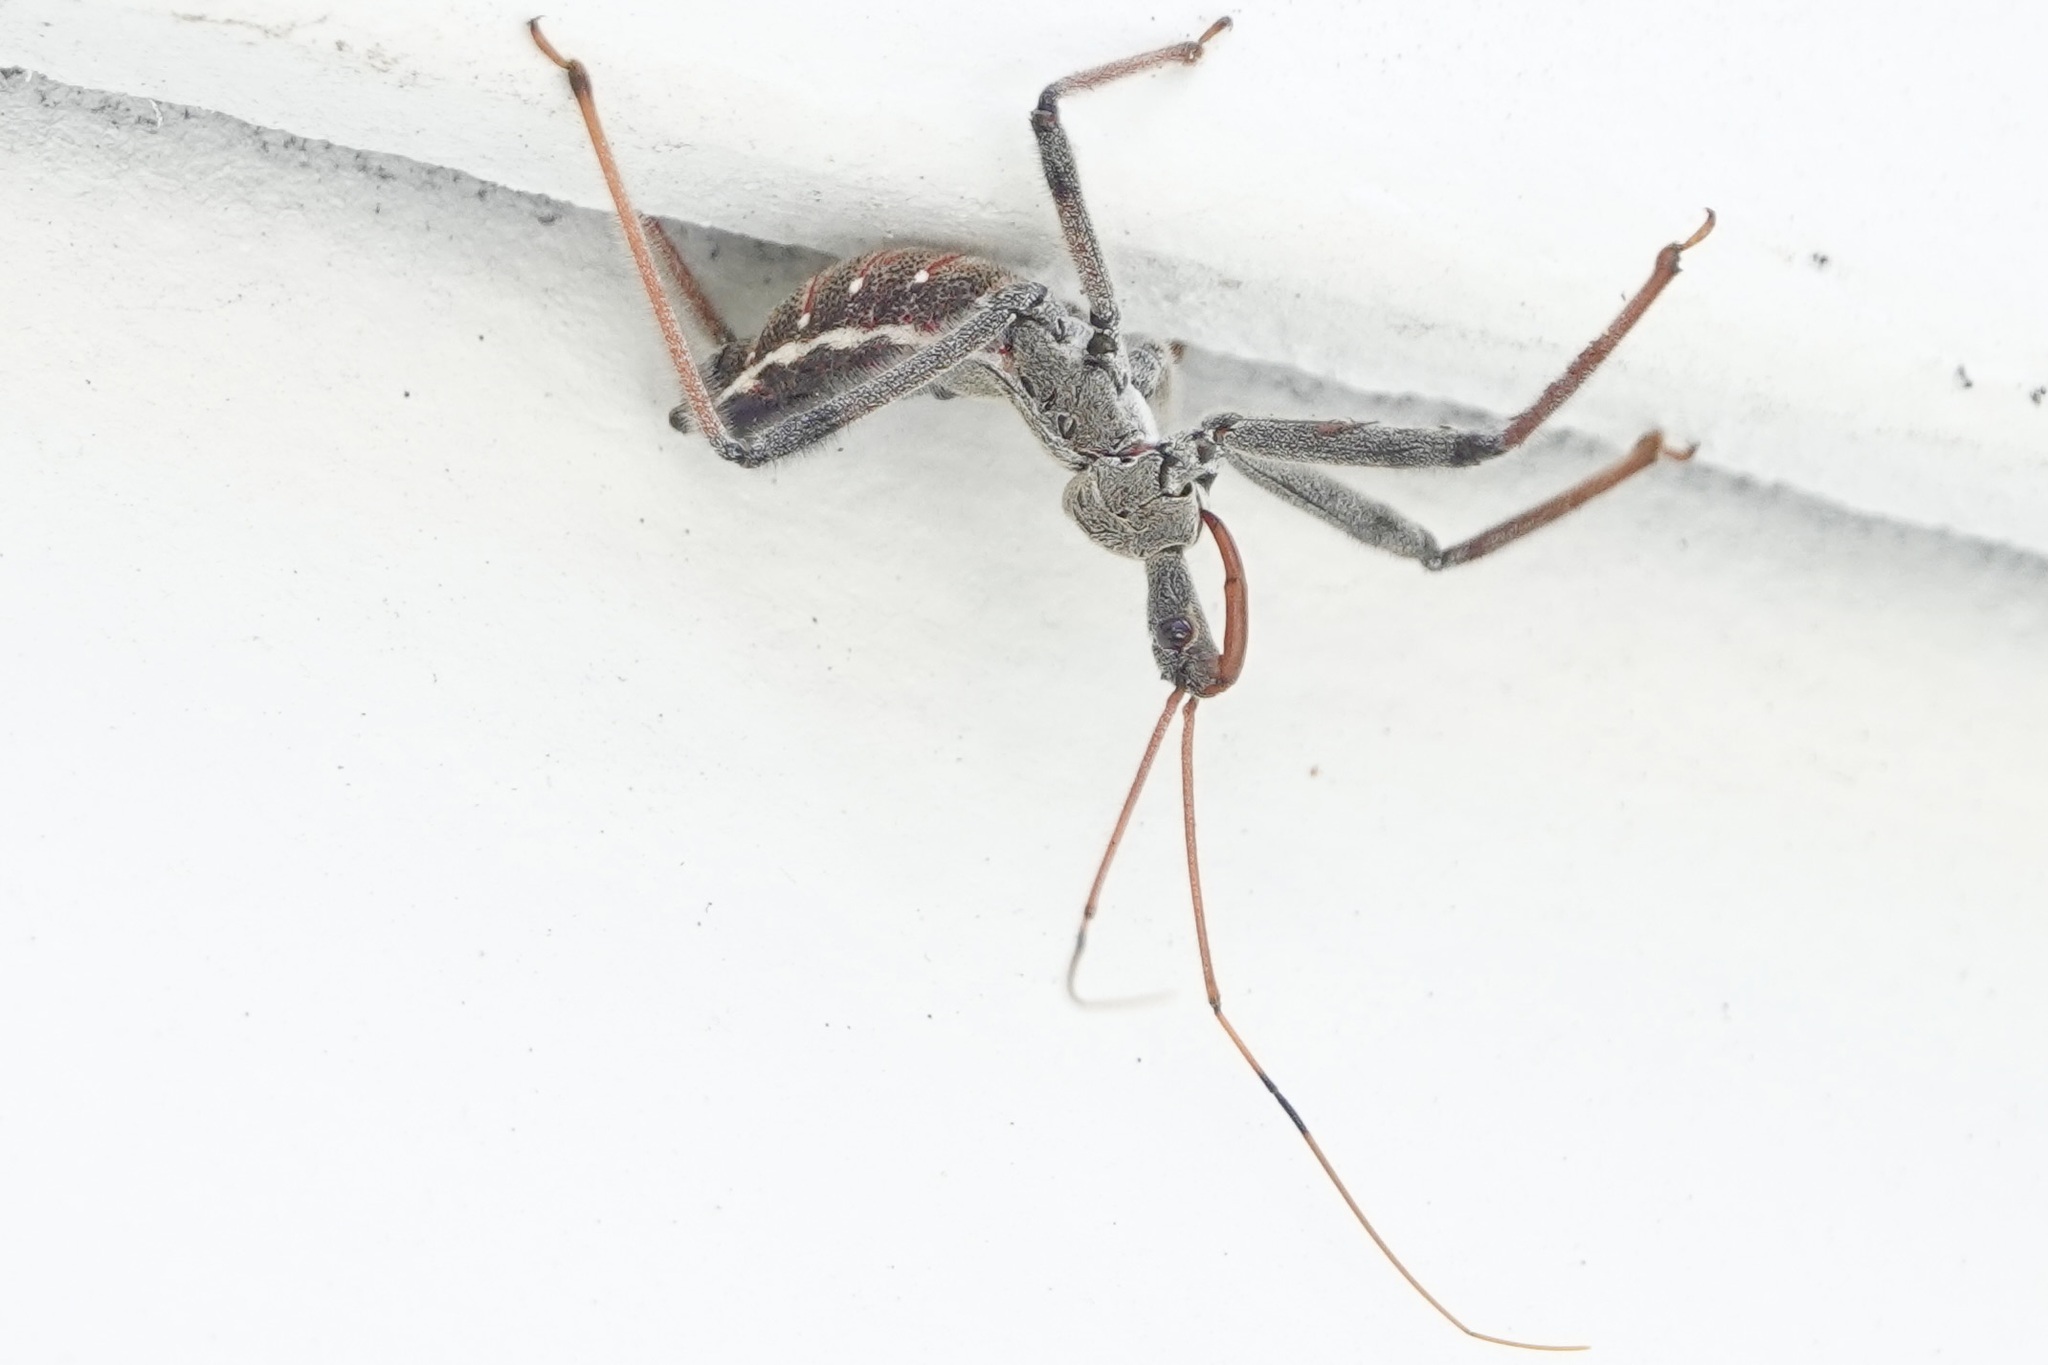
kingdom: Animalia
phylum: Arthropoda
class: Insecta
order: Hemiptera
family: Reduviidae
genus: Arilus
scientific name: Arilus cristatus
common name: North american wheel bug
